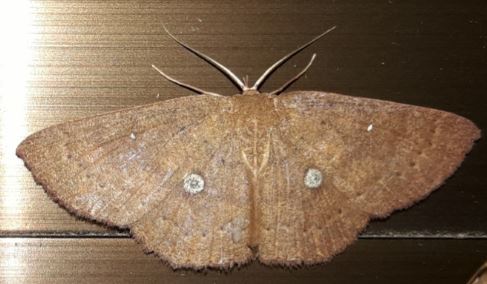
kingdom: Animalia
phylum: Arthropoda
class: Insecta
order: Lepidoptera
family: Geometridae
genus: Cyclophora
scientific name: Cyclophora
